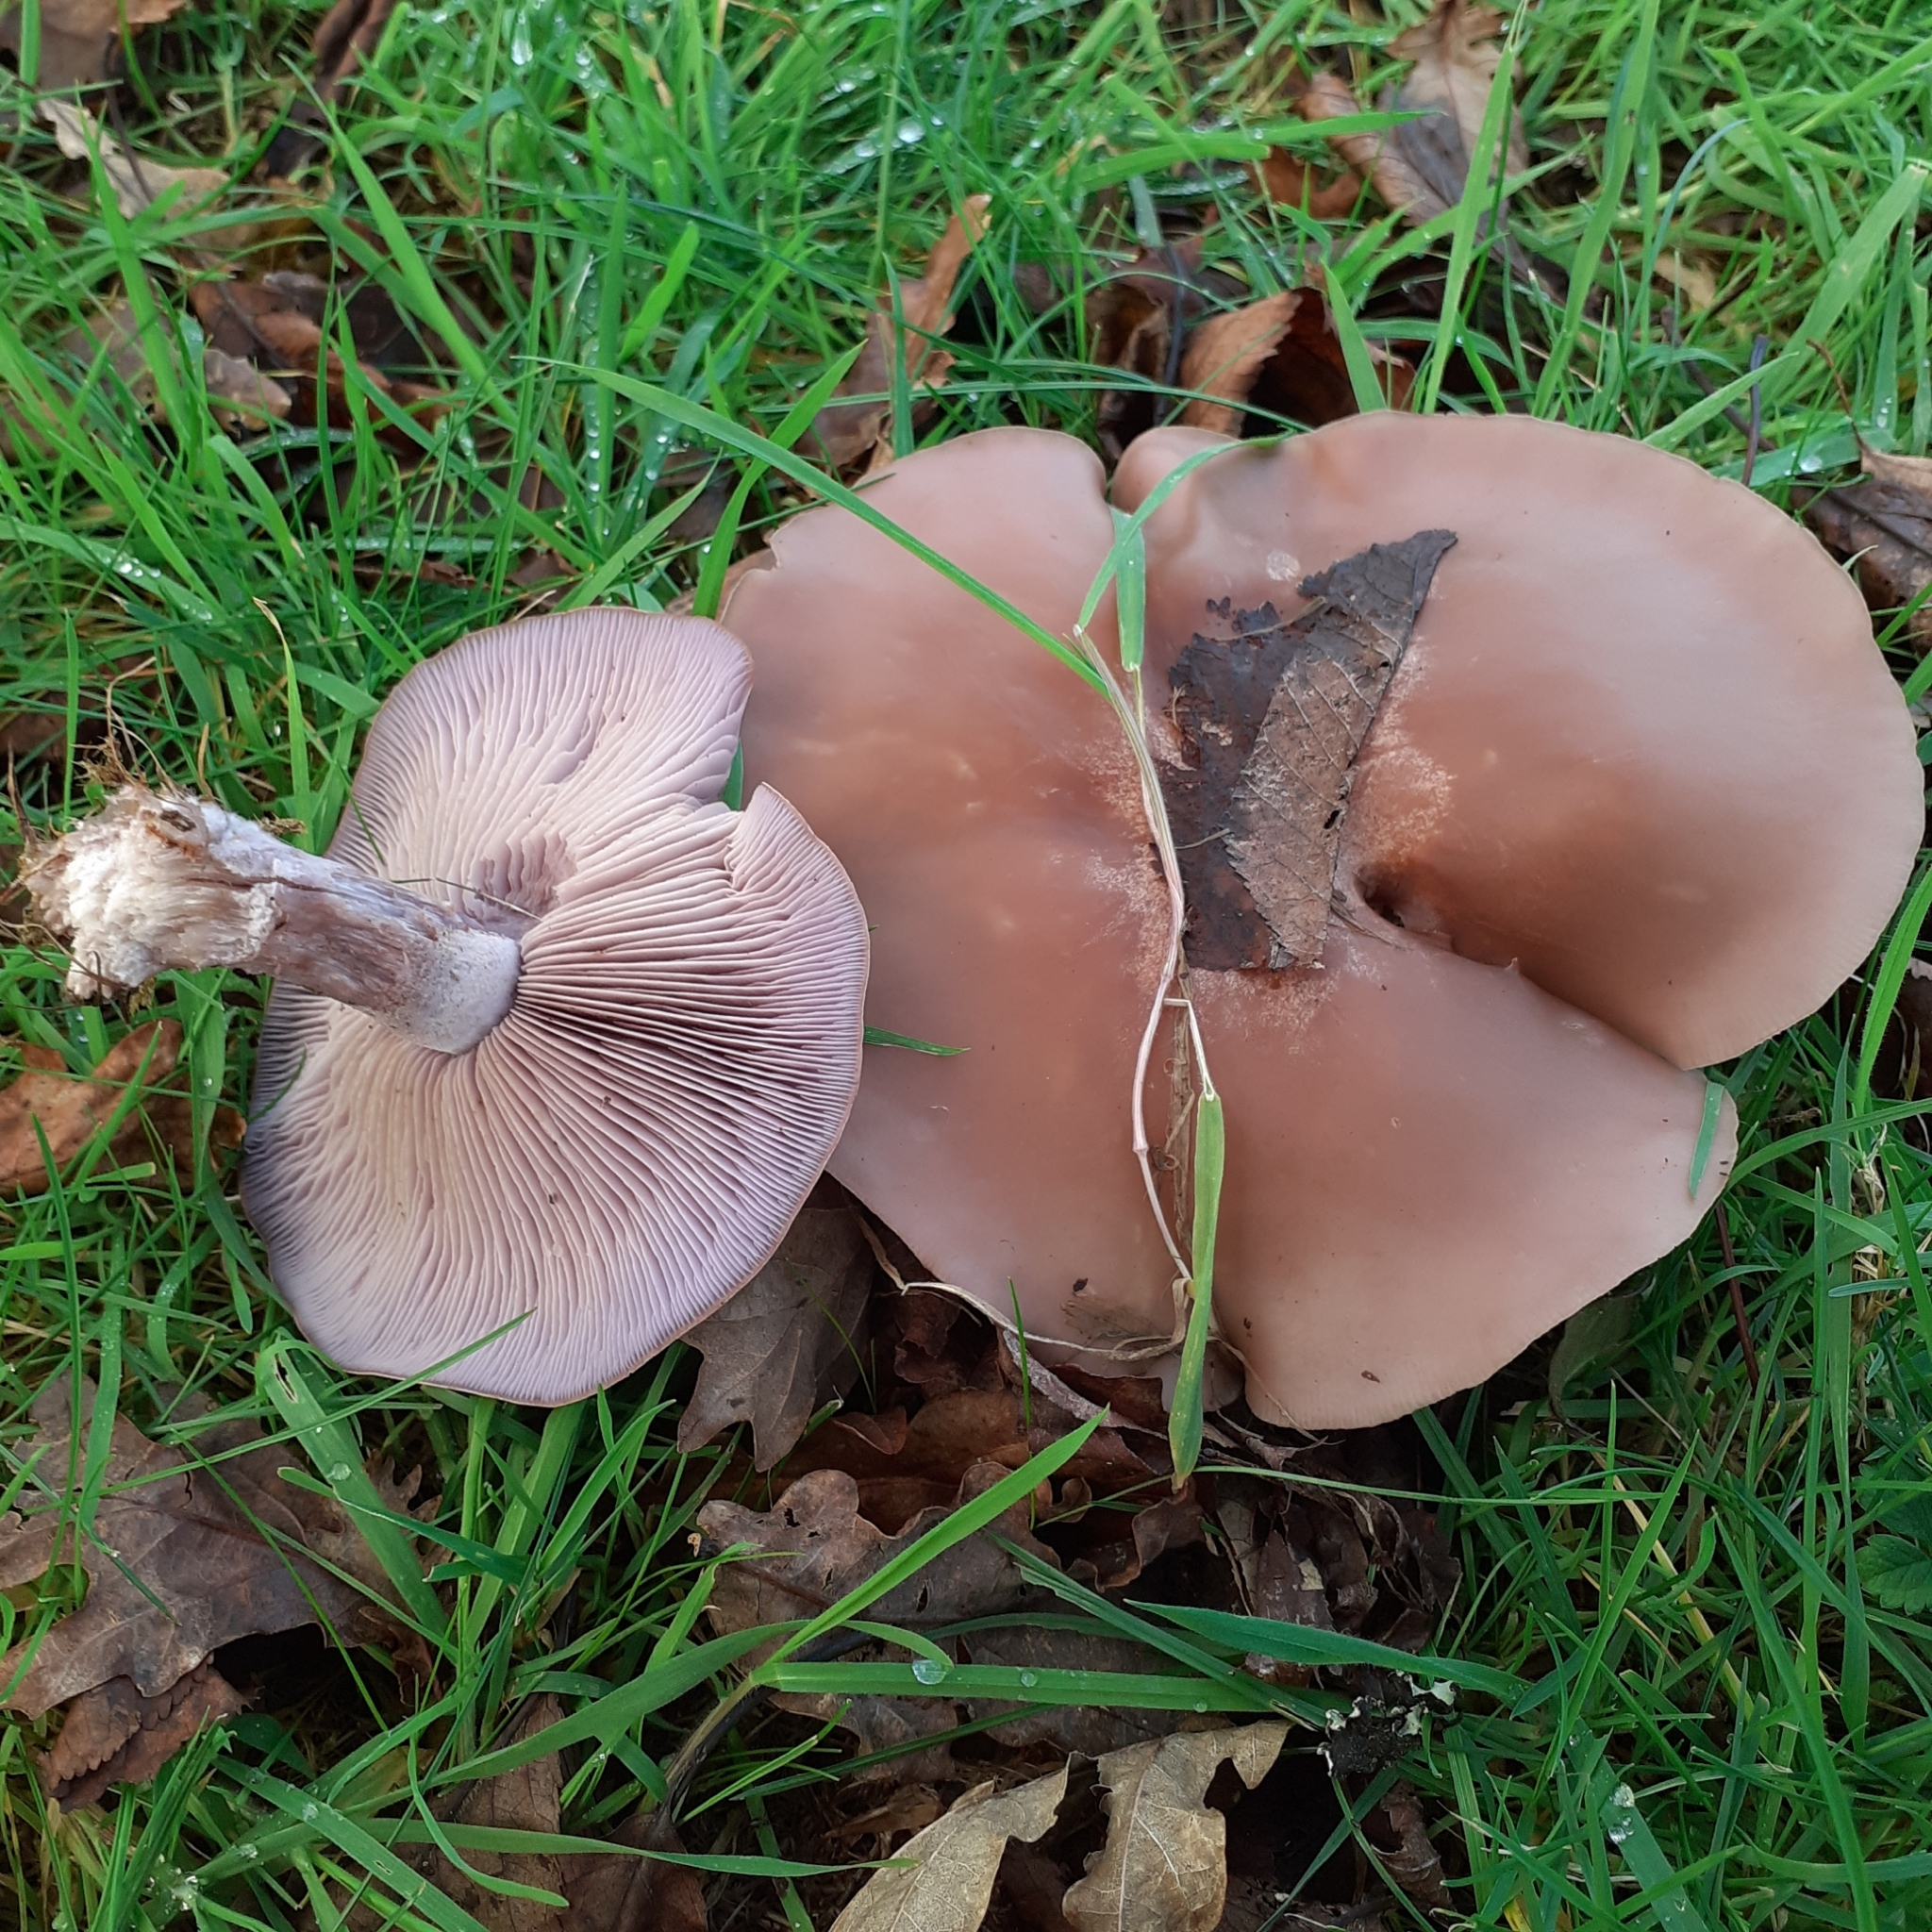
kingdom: Fungi
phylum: Basidiomycota
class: Agaricomycetes
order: Agaricales
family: Tricholomataceae
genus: Collybia
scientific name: Collybia
